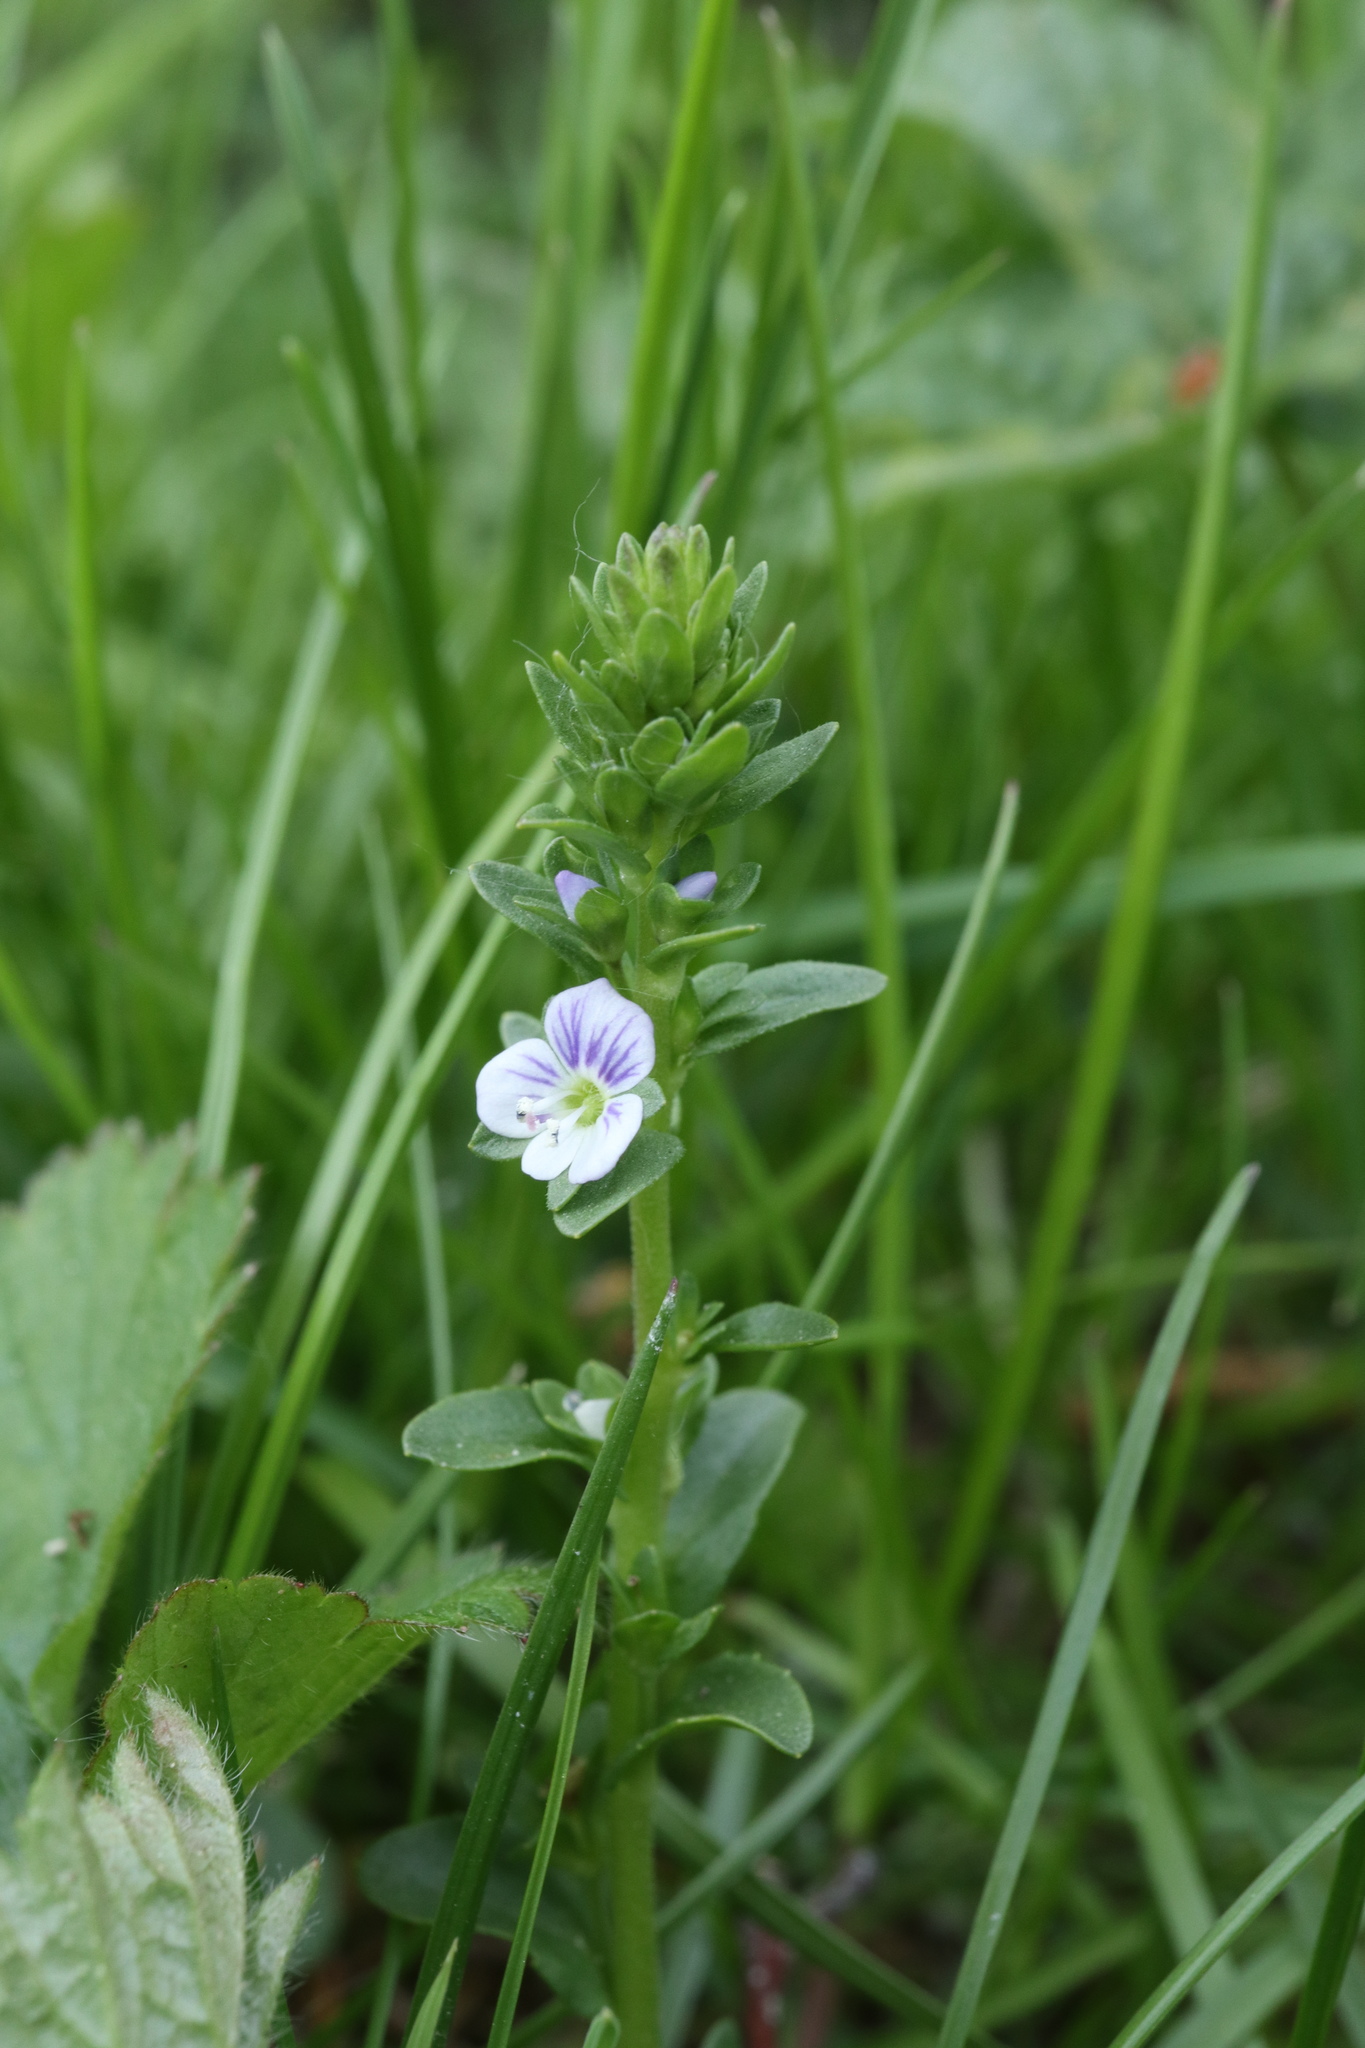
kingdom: Plantae
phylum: Tracheophyta
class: Magnoliopsida
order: Lamiales
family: Plantaginaceae
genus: Veronica
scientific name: Veronica serpyllifolia
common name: Thyme-leaved speedwell
